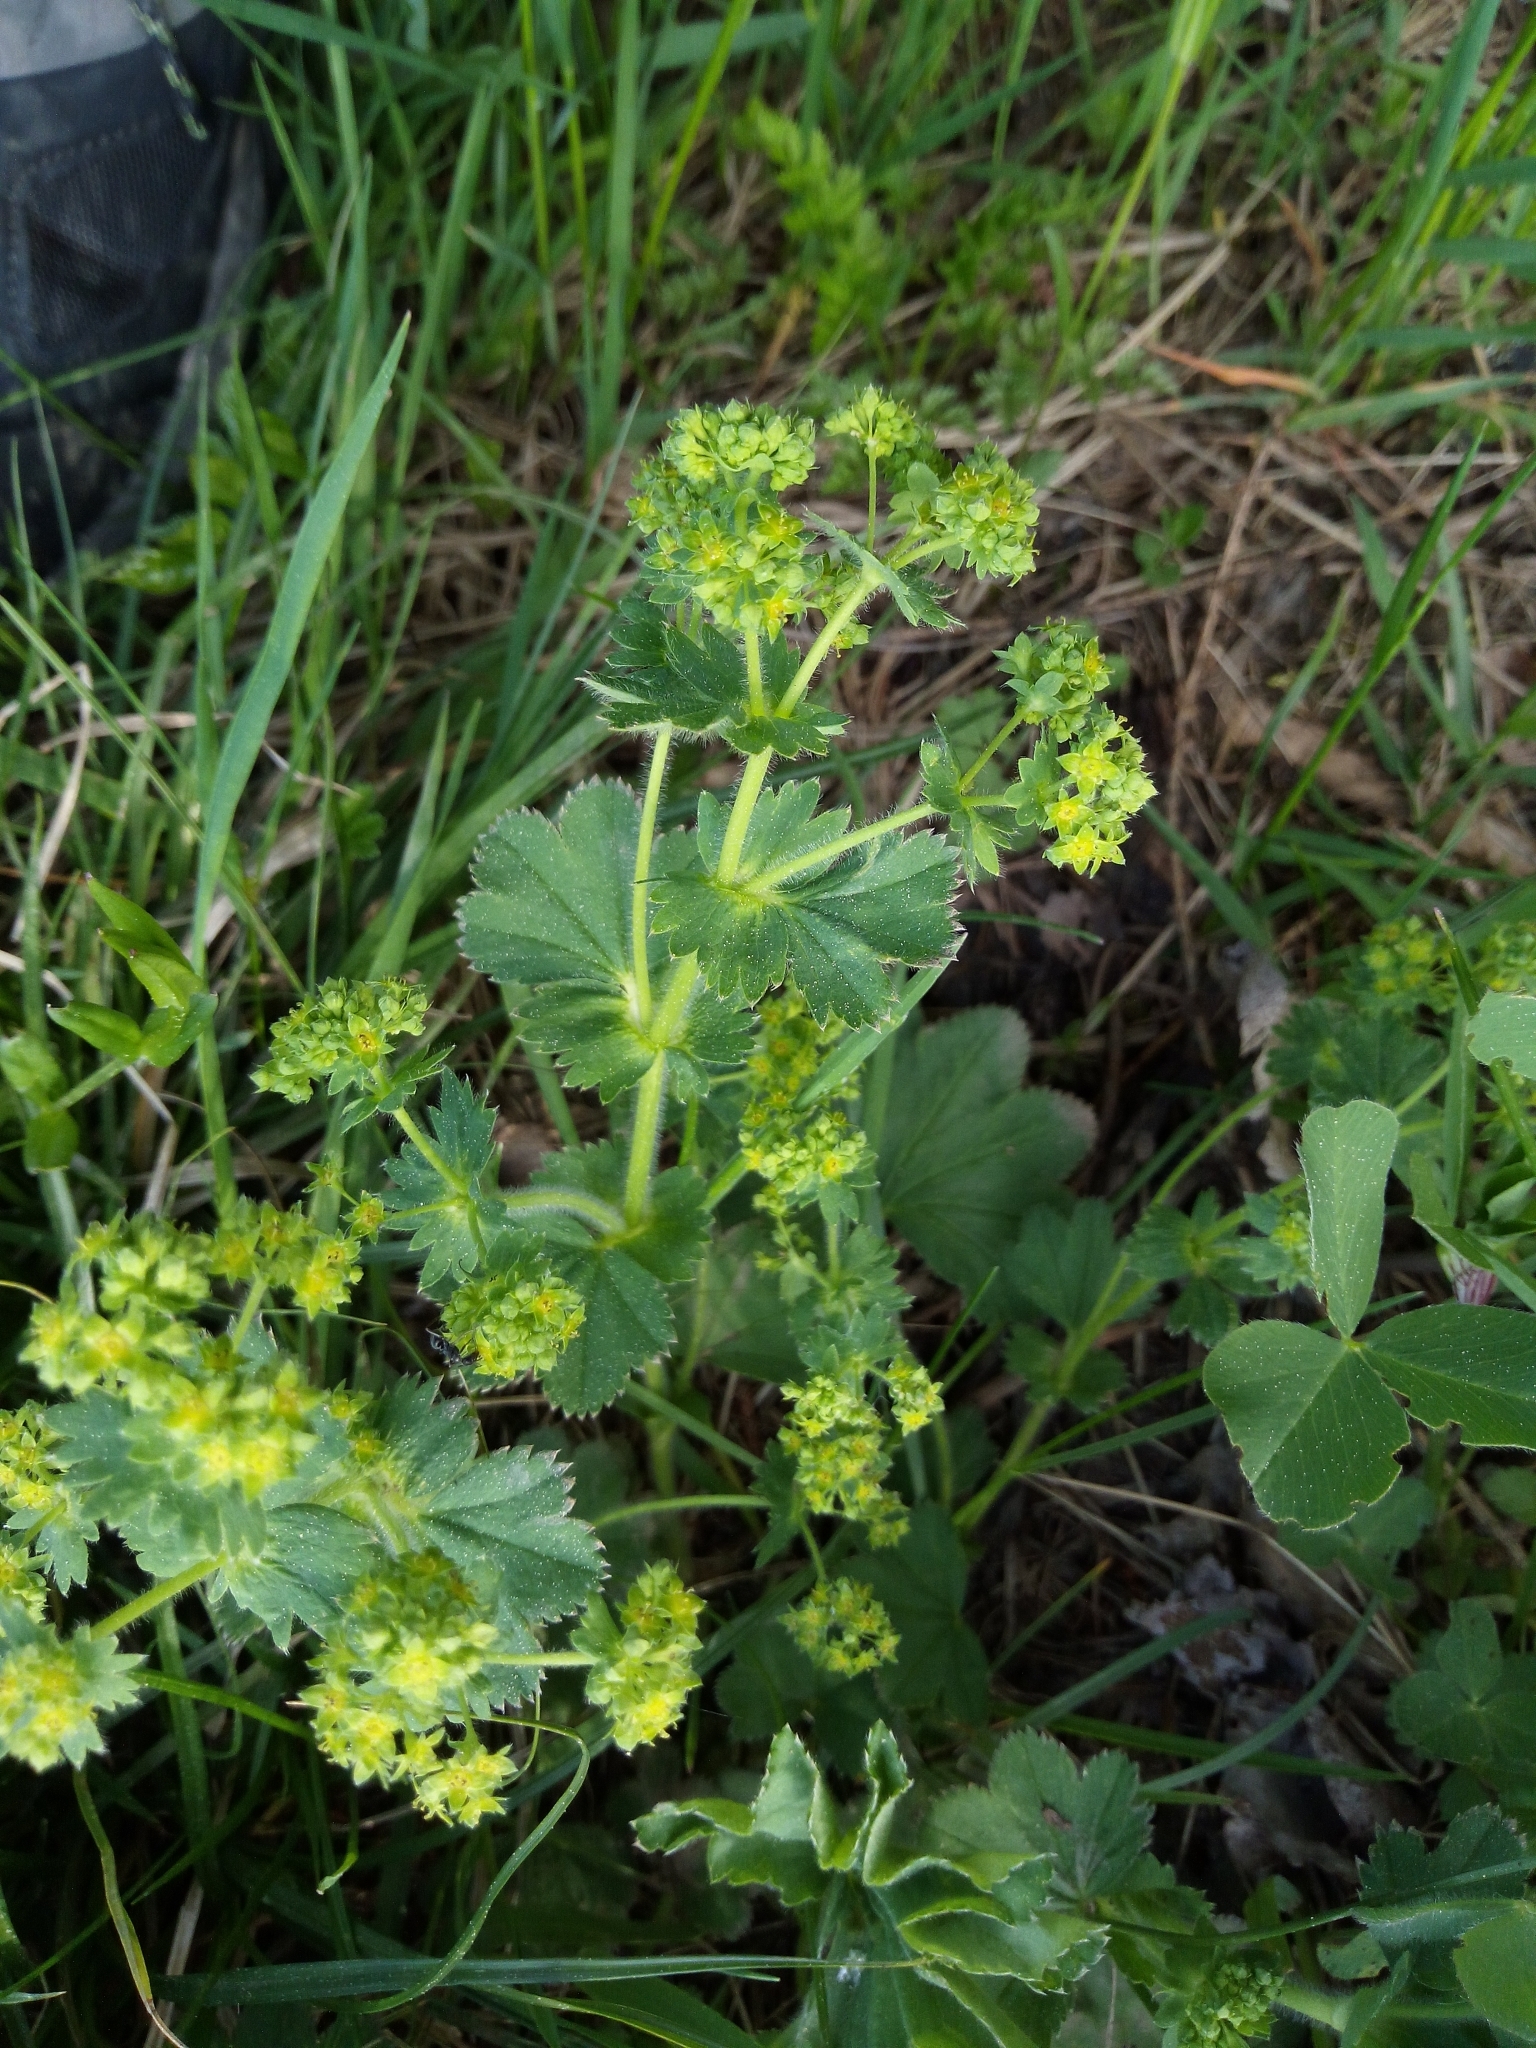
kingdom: Plantae
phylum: Tracheophyta
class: Magnoliopsida
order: Rosales
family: Rosaceae
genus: Alchemilla
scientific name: Alchemilla monticola
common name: Hairy lady's mantle
